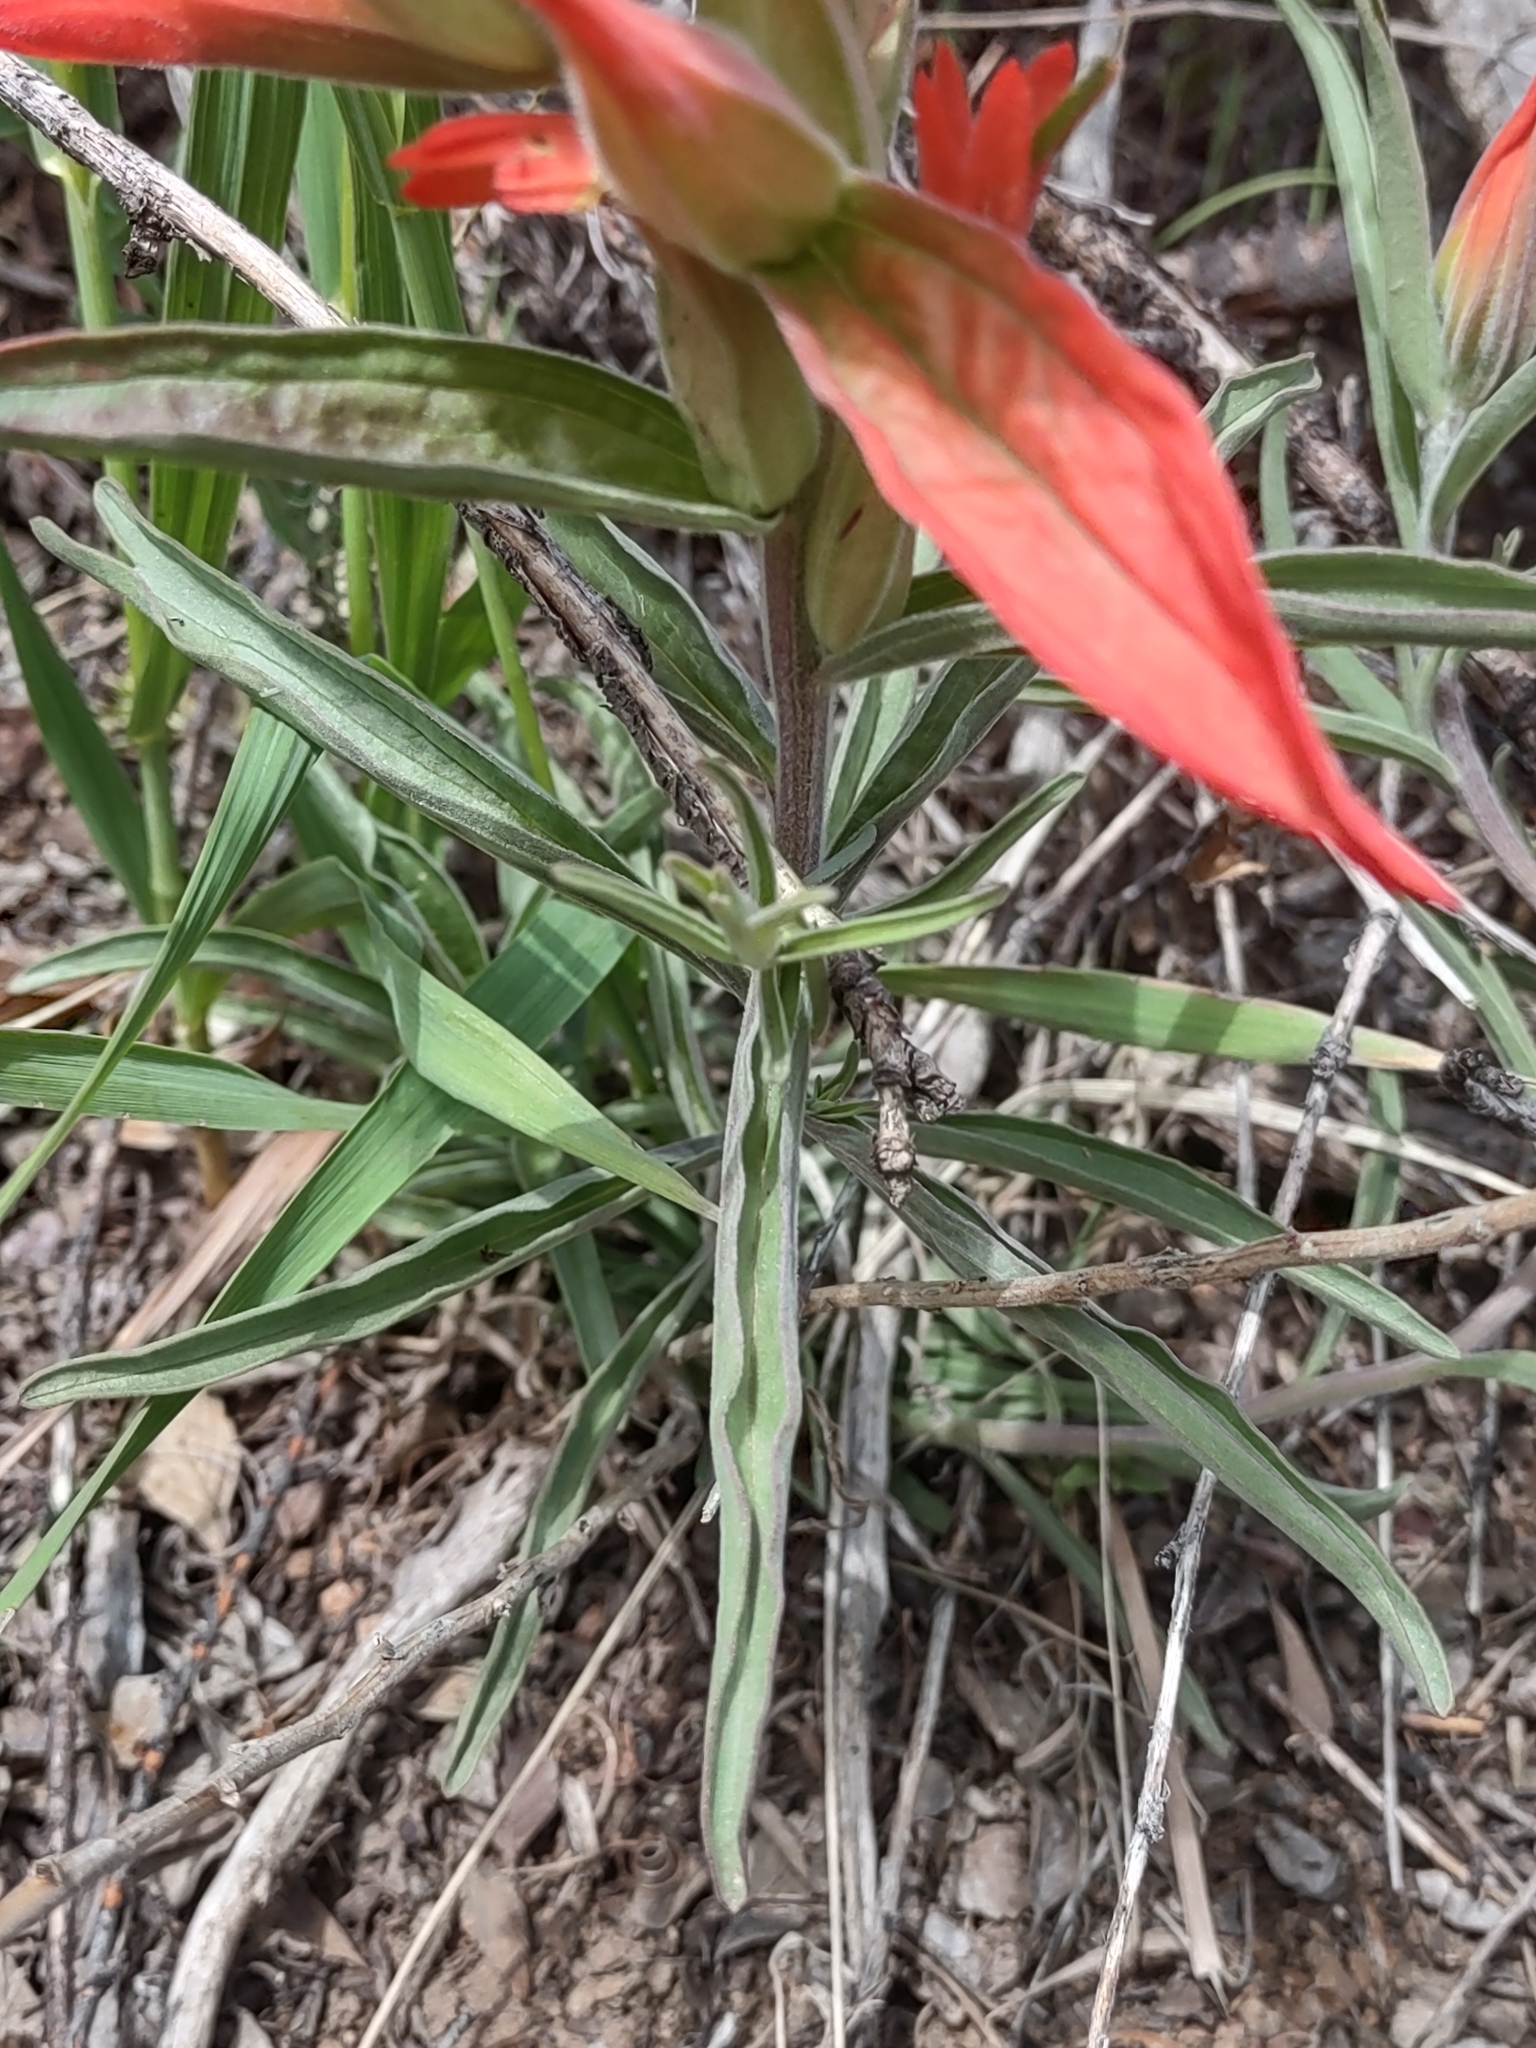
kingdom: Plantae
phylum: Tracheophyta
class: Magnoliopsida
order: Lamiales
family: Orobanchaceae
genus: Castilleja
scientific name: Castilleja integra
